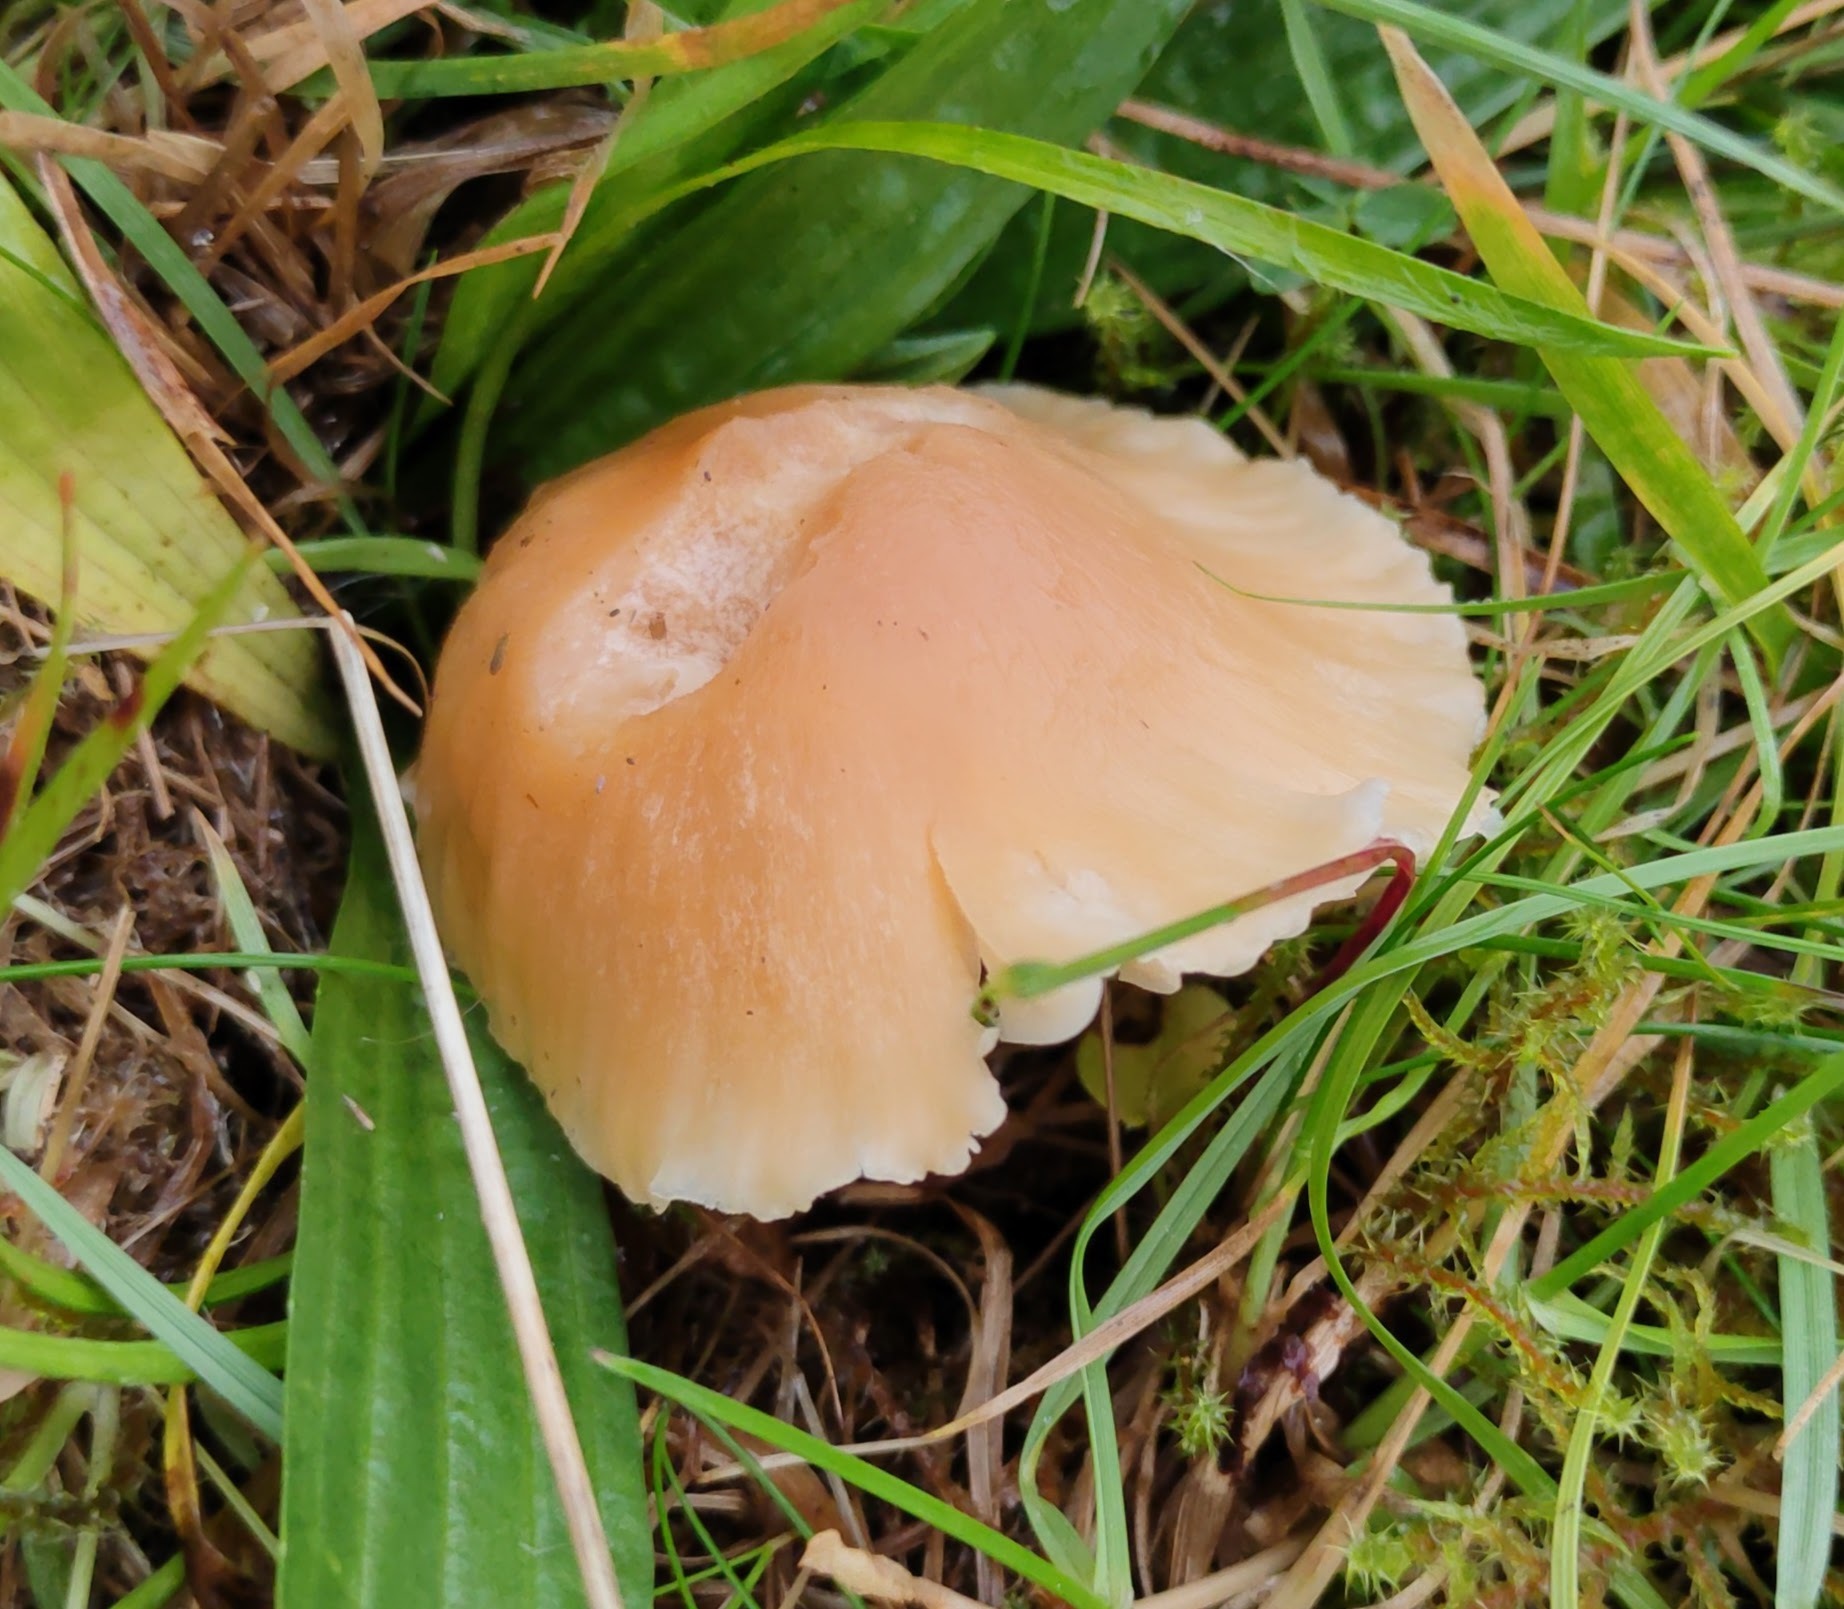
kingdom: Fungi
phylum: Basidiomycota
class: Agaricomycetes
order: Agaricales
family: Hygrophoraceae
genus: Cuphophyllus
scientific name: Cuphophyllus pratensis
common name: Meadow waxcap
